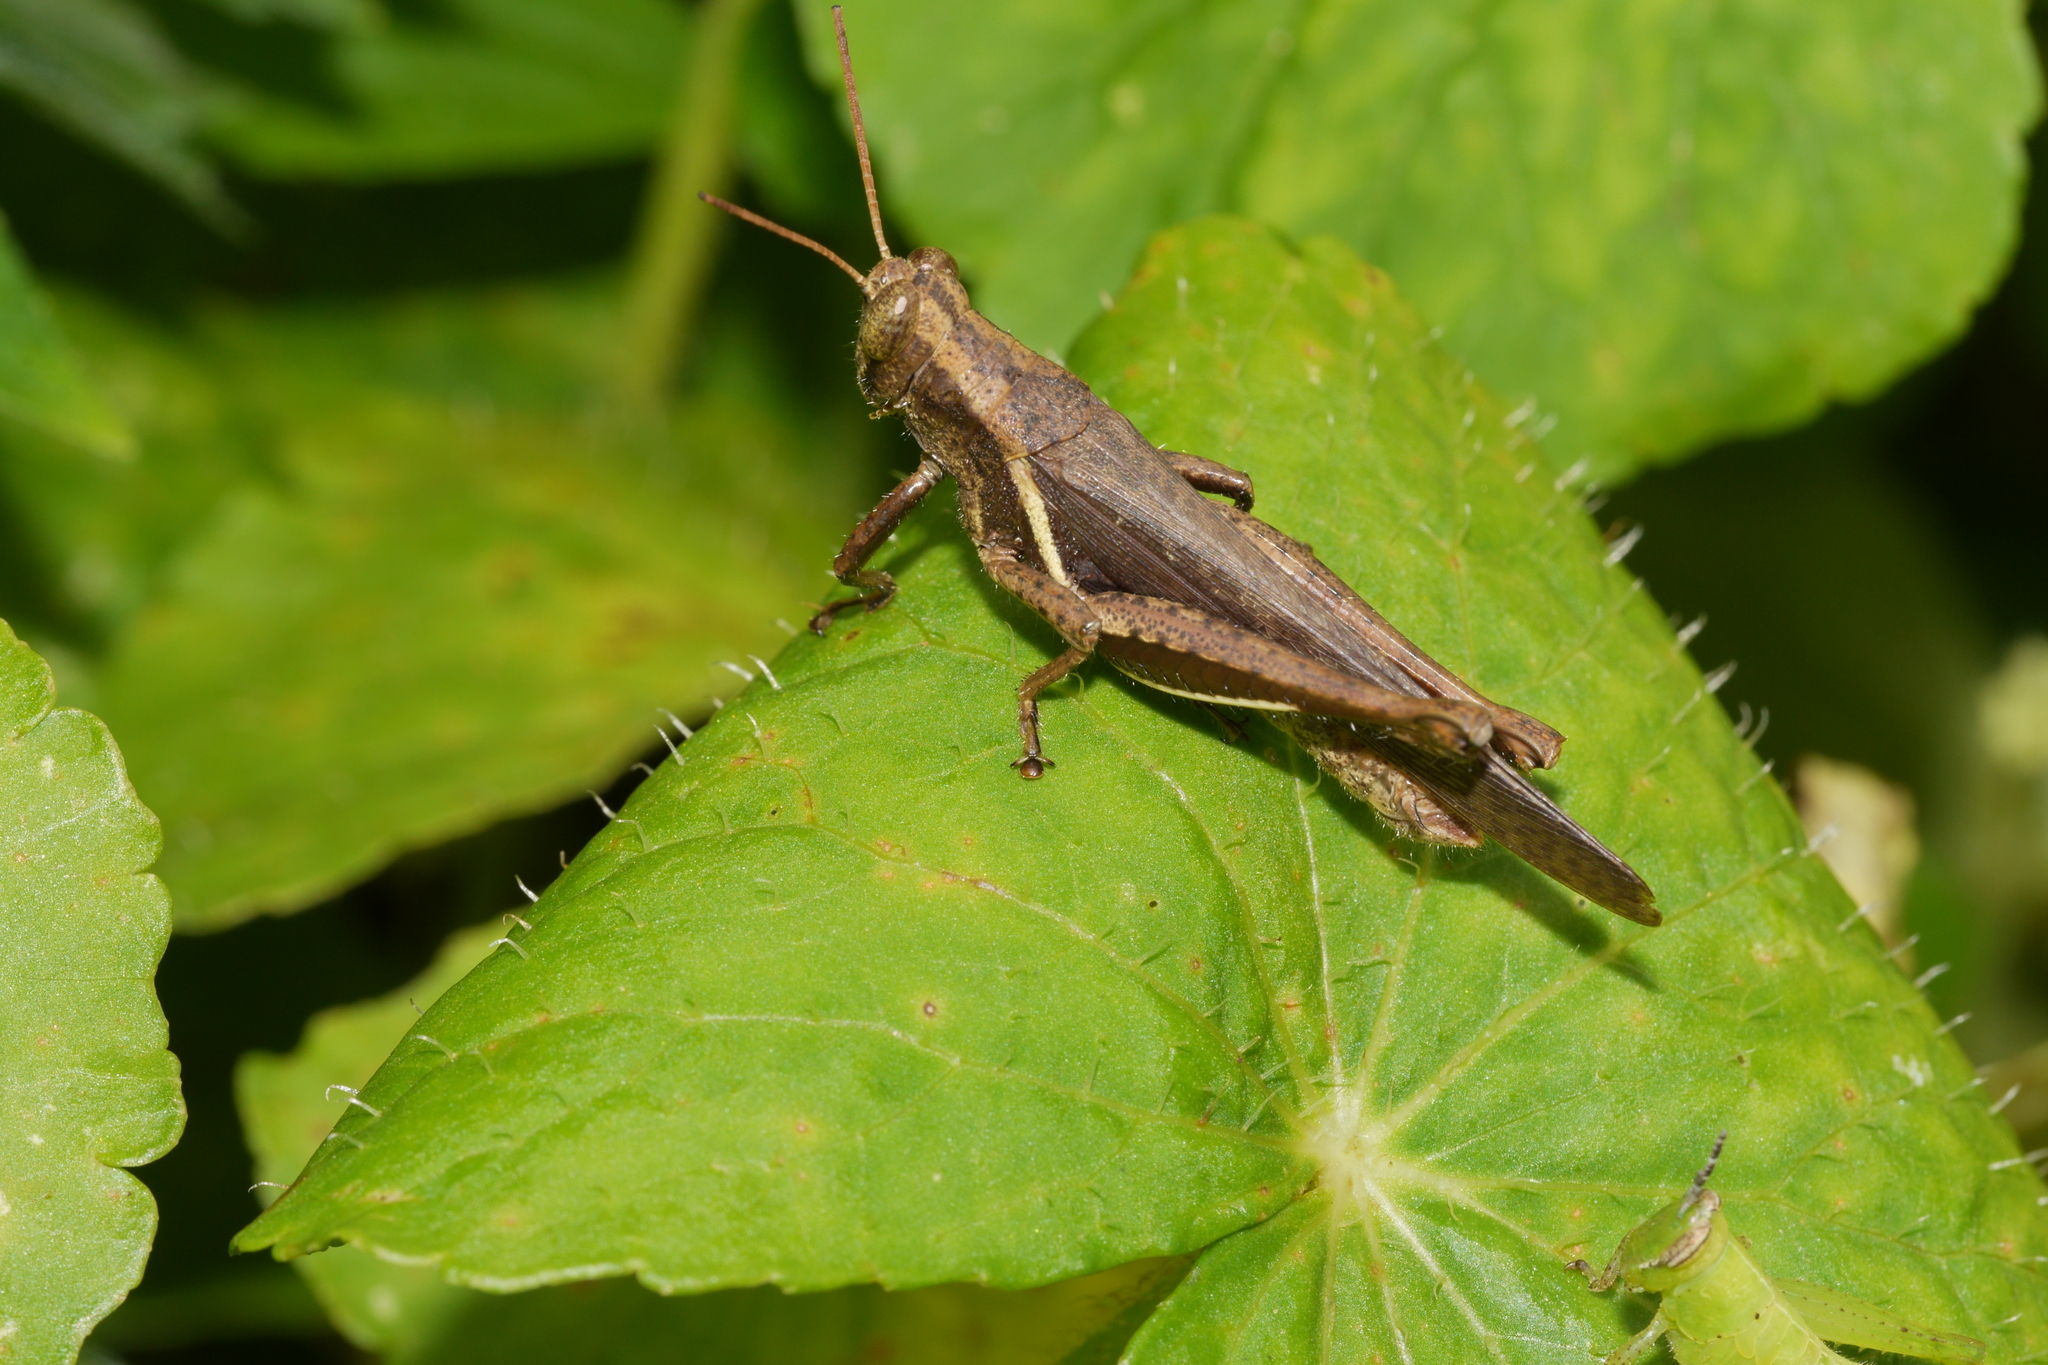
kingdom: Animalia
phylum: Arthropoda
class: Insecta
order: Orthoptera
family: Acrididae
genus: Abracris
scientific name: Abracris flavolineata
